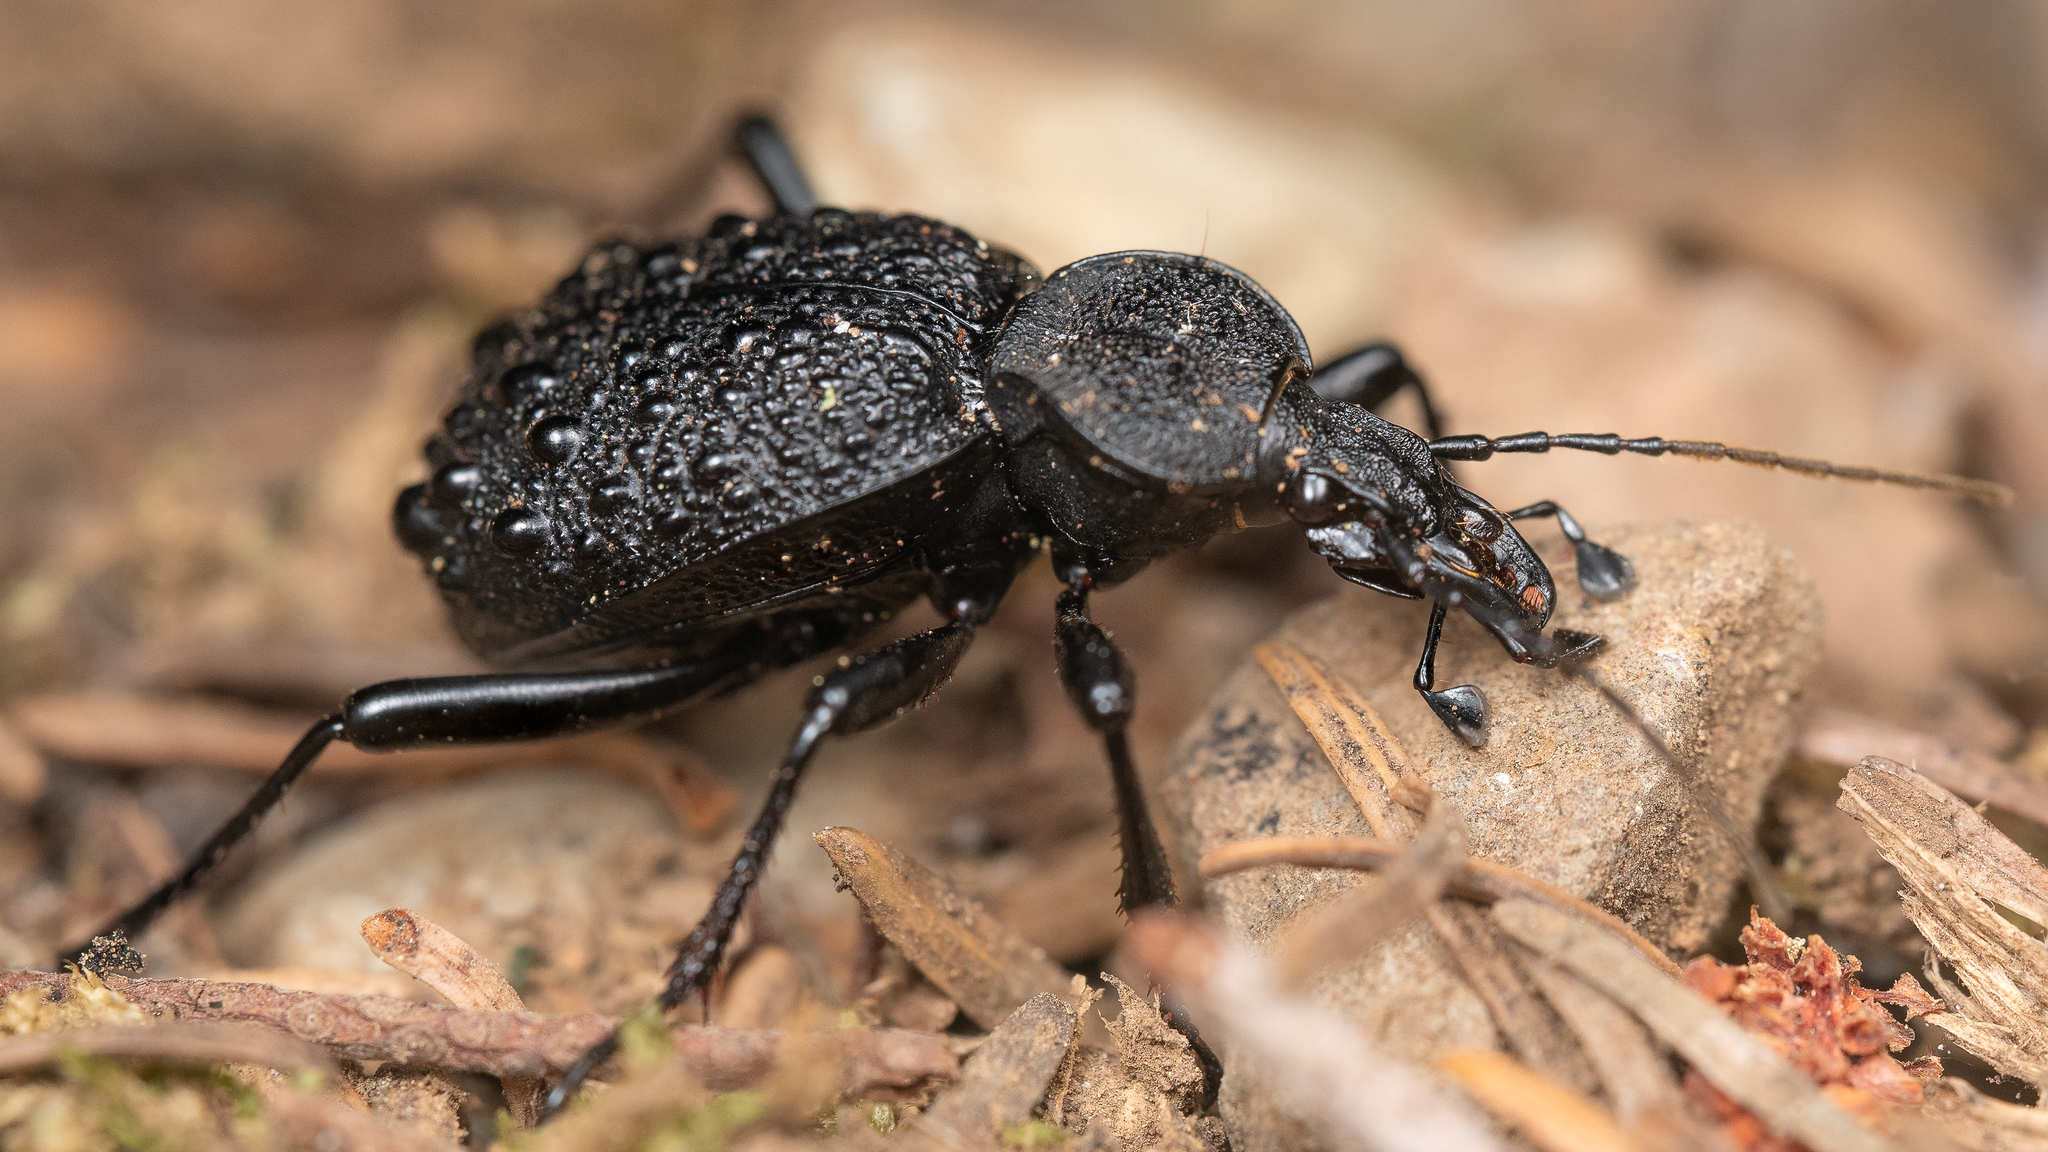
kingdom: Animalia
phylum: Arthropoda
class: Insecta
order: Coleoptera
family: Carabidae
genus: Cychrus
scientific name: Cychrus tuberculatus
